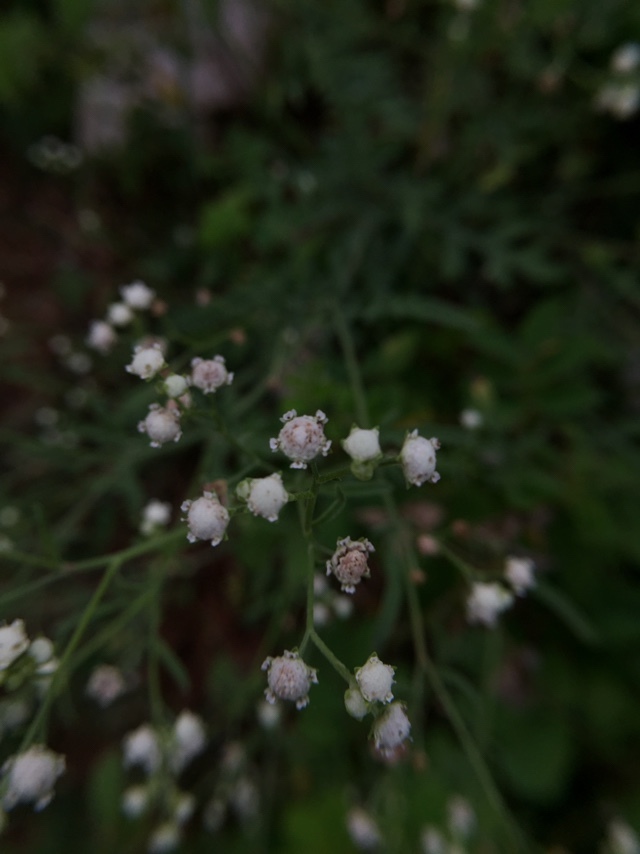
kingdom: Plantae
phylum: Tracheophyta
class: Magnoliopsida
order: Asterales
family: Asteraceae
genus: Parthenium
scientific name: Parthenium hysterophorus
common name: Santa maria feverfew
